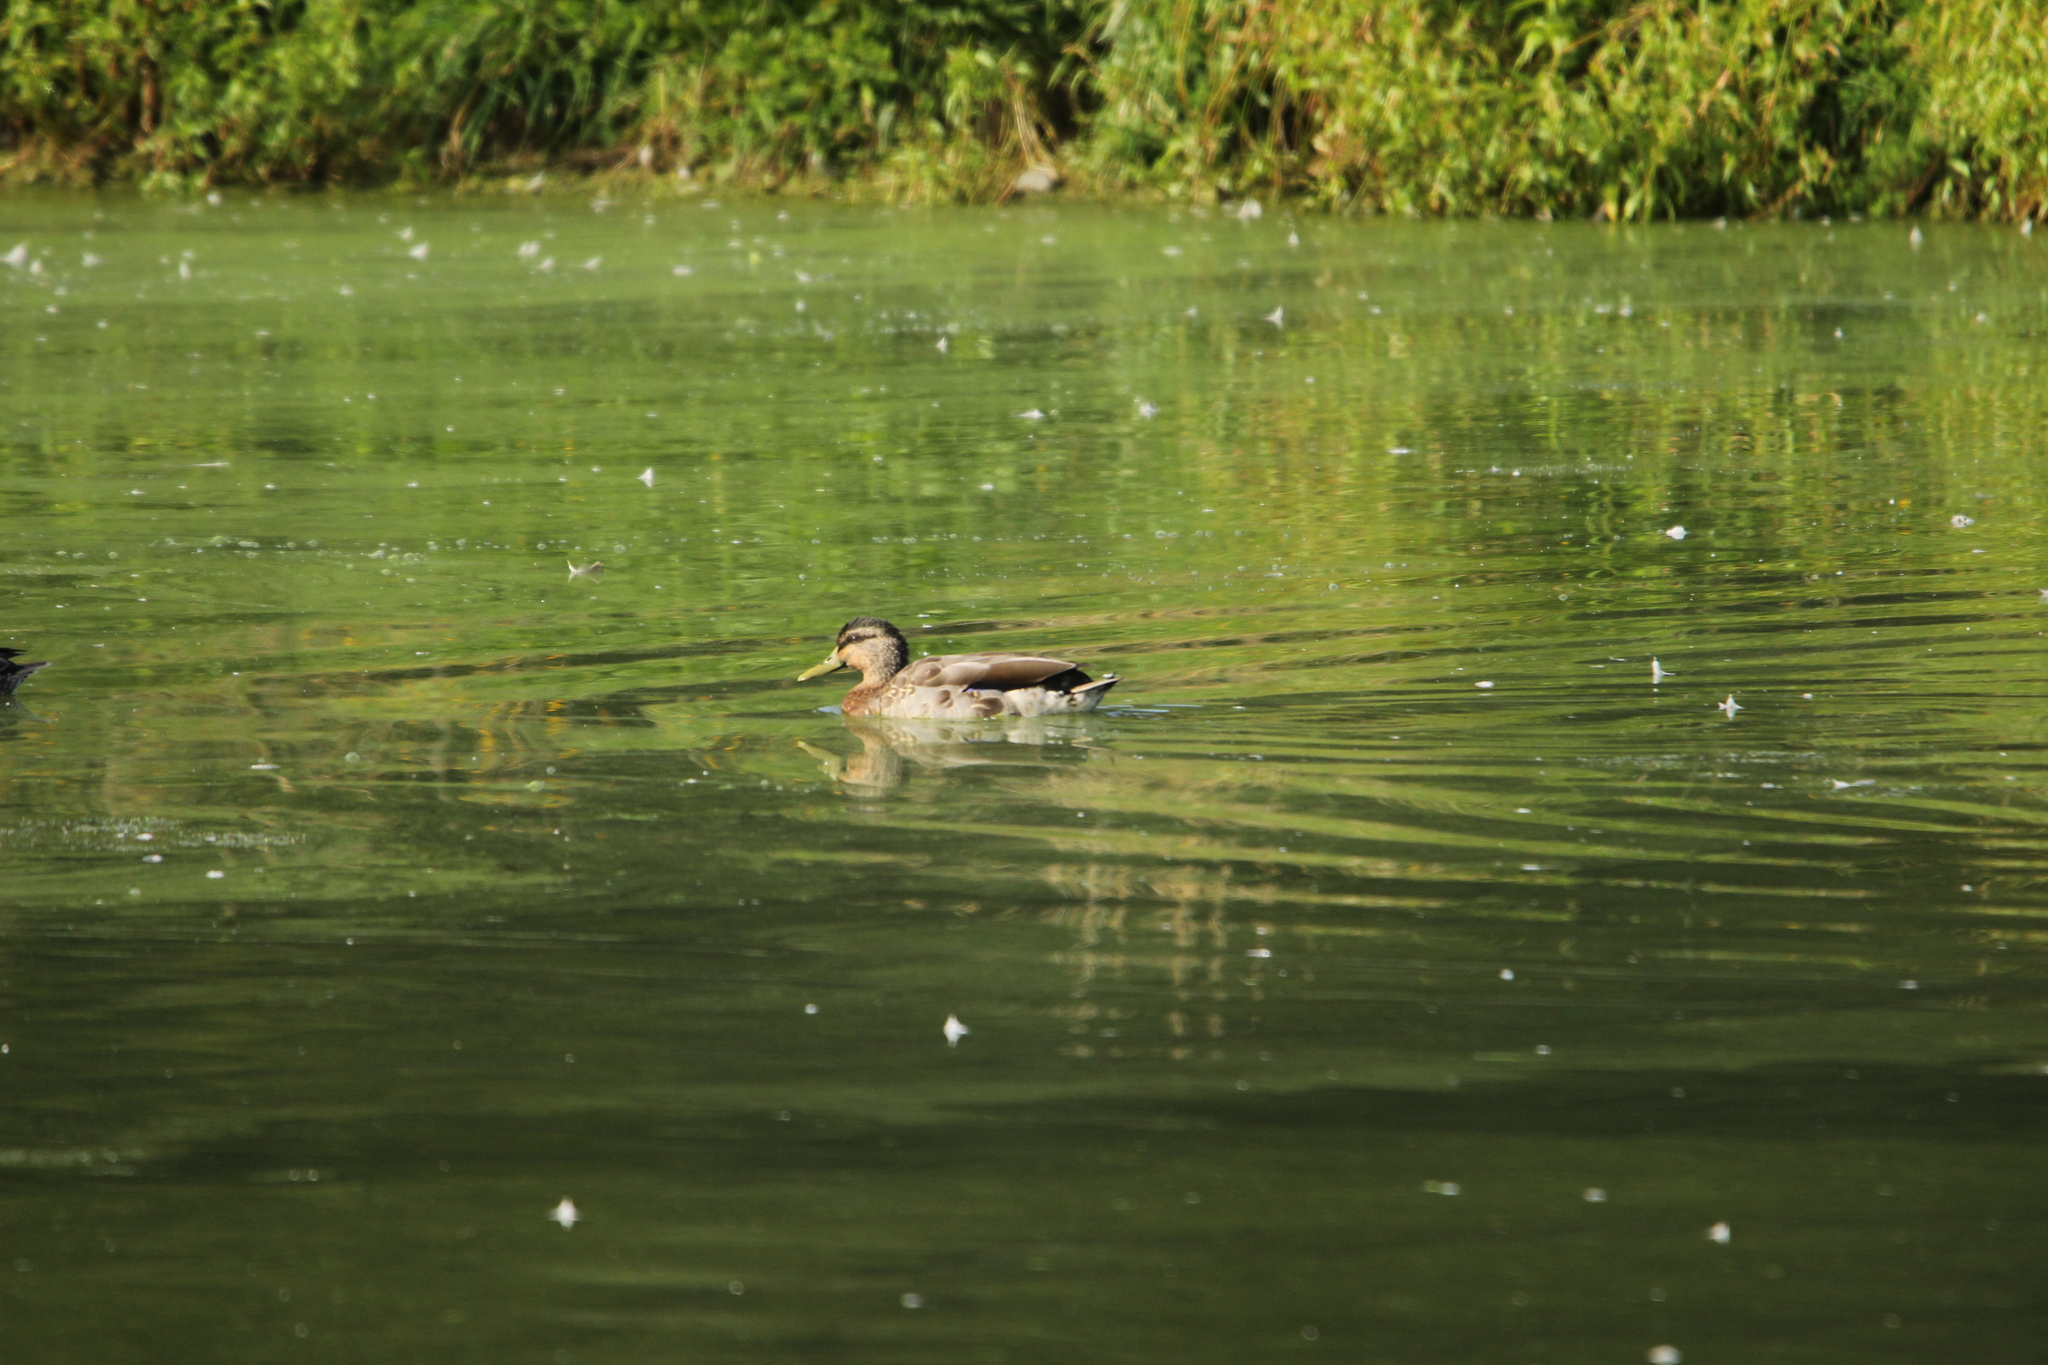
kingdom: Animalia
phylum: Chordata
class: Aves
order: Anseriformes
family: Anatidae
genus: Anas
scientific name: Anas platyrhynchos
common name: Mallard
